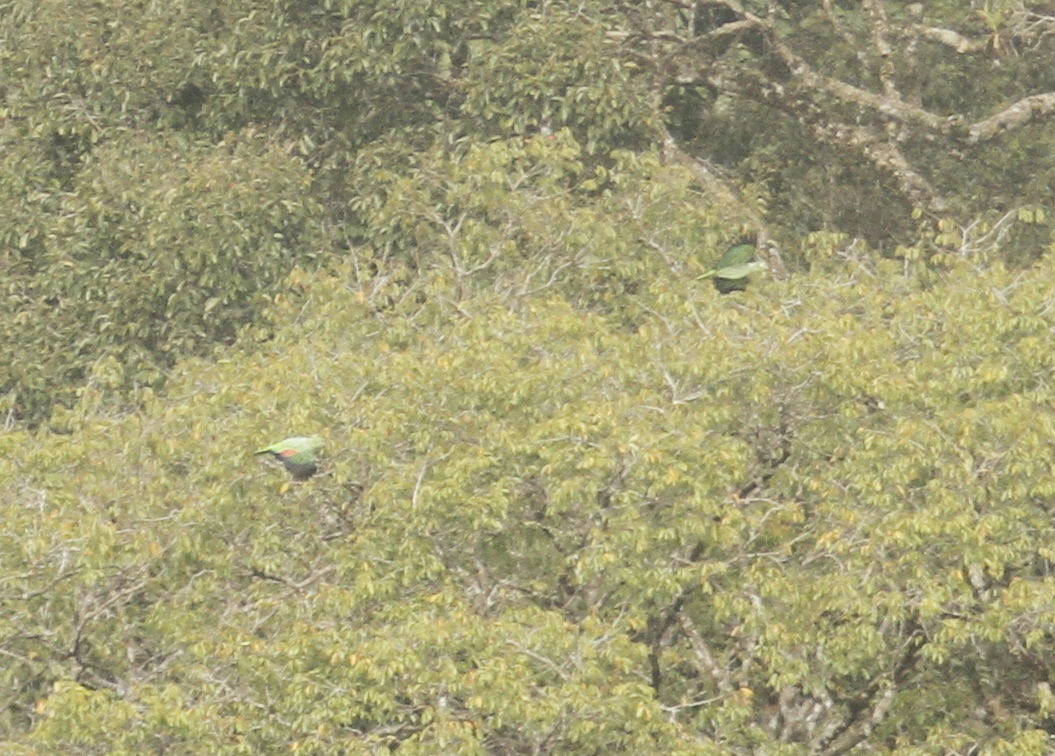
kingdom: Animalia
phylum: Chordata
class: Aves
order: Psittaciformes
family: Psittacidae
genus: Amazona
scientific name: Amazona farinosa
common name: Mealy parrot
